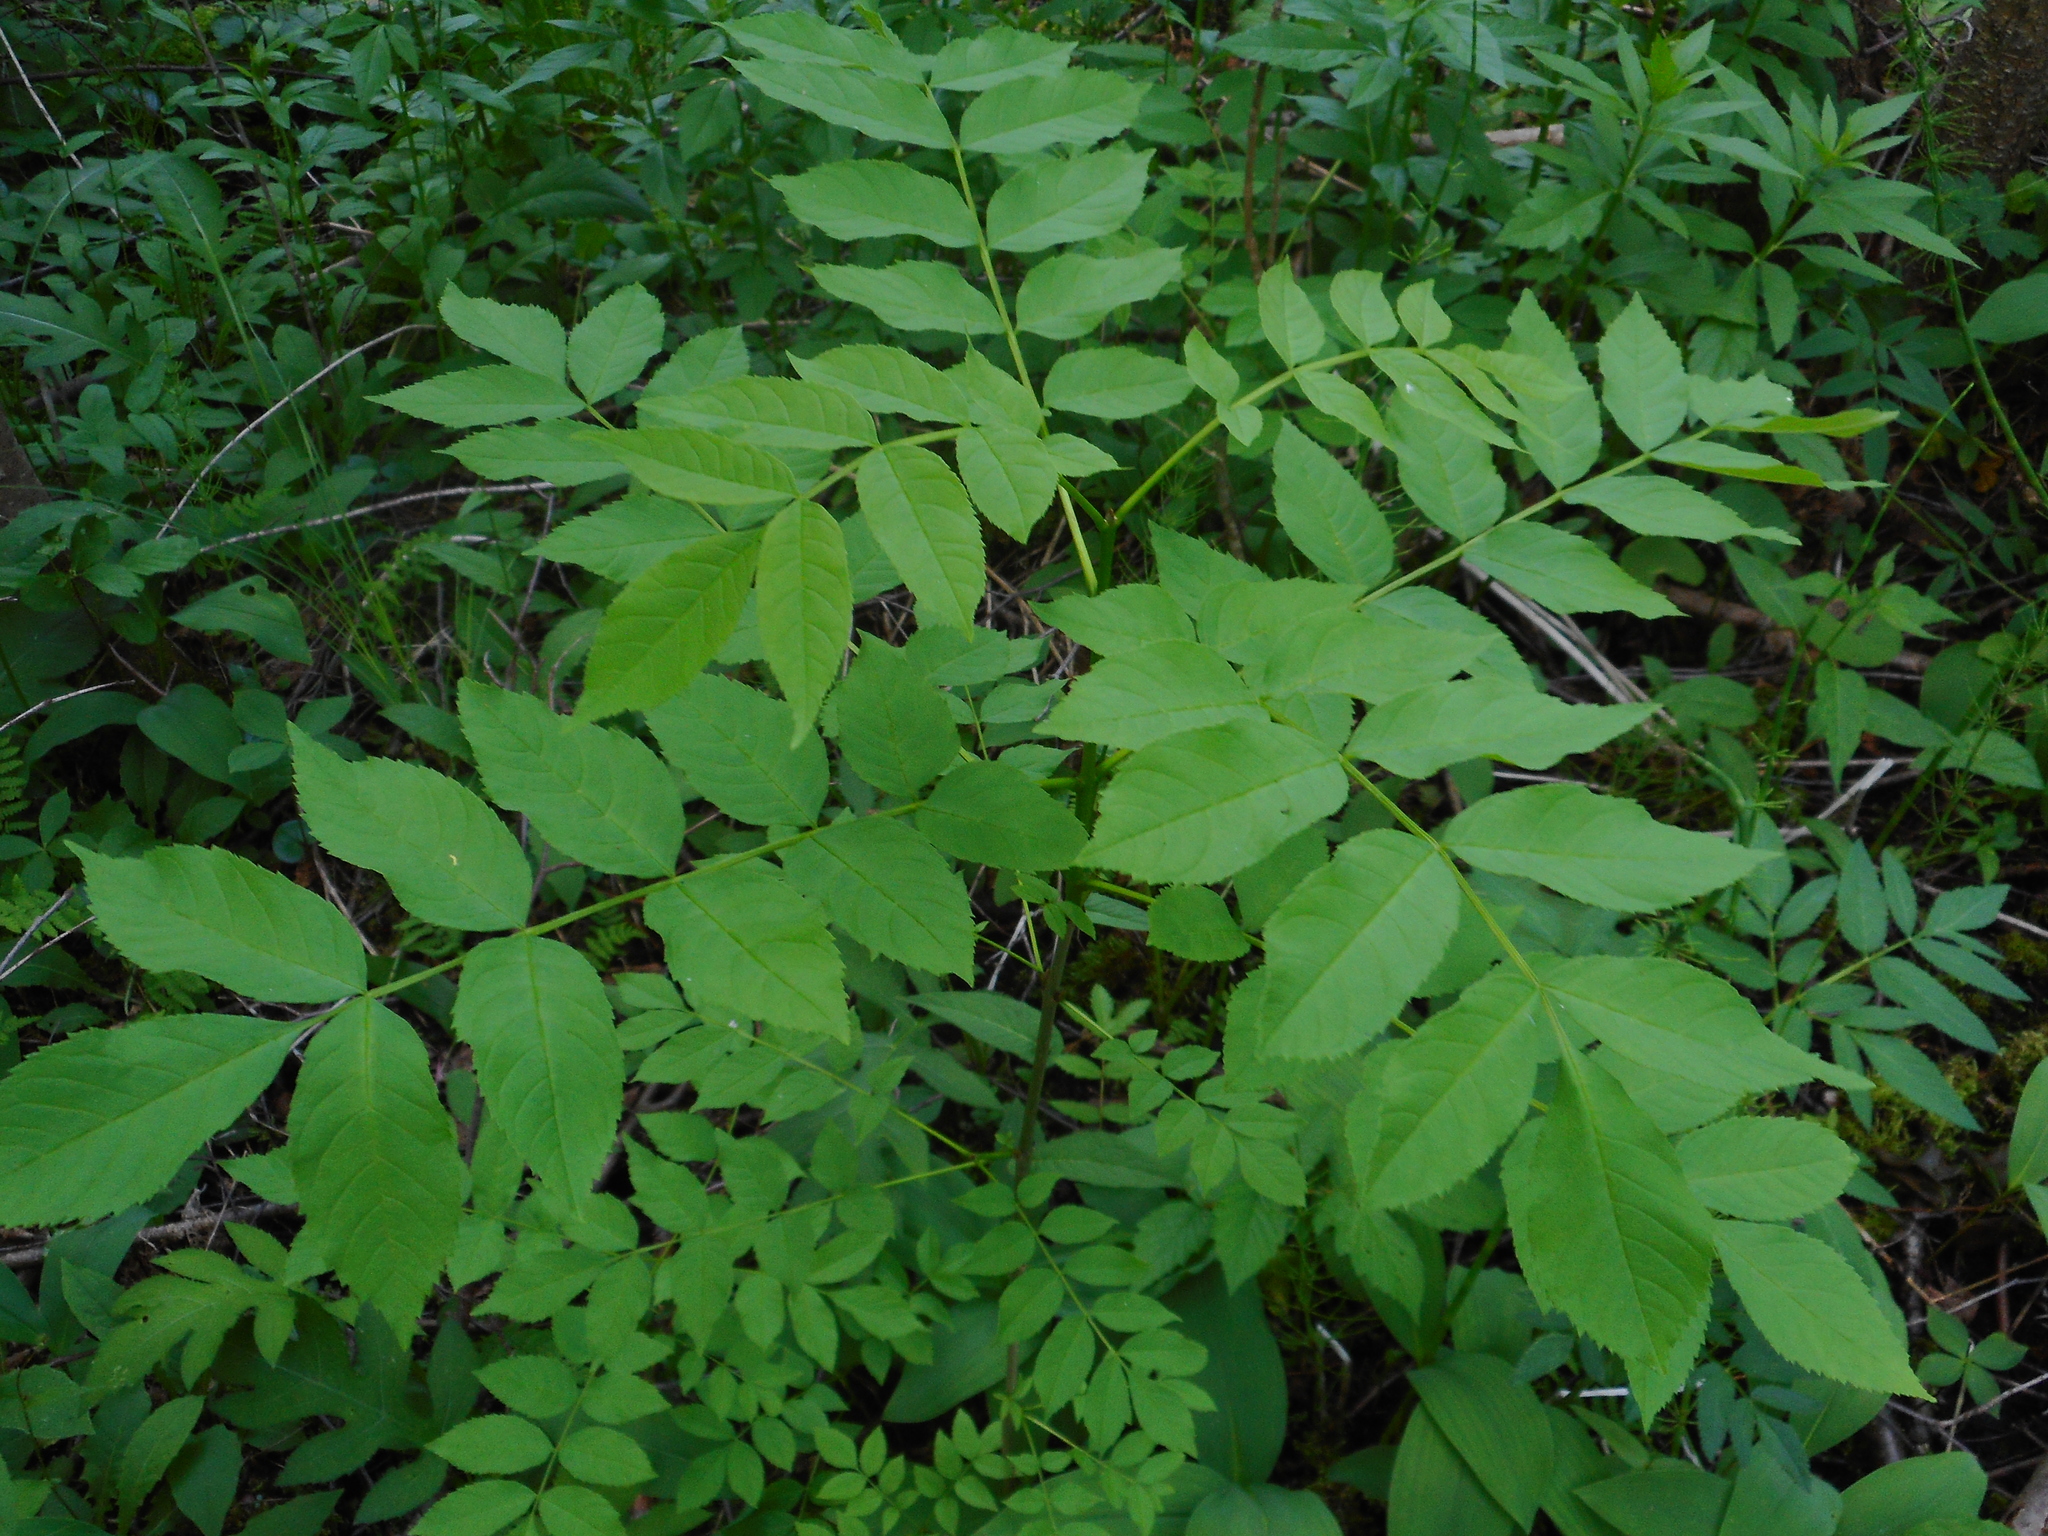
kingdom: Plantae
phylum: Tracheophyta
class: Magnoliopsida
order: Lamiales
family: Oleaceae
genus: Fraxinus
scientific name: Fraxinus excelsior
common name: European ash
